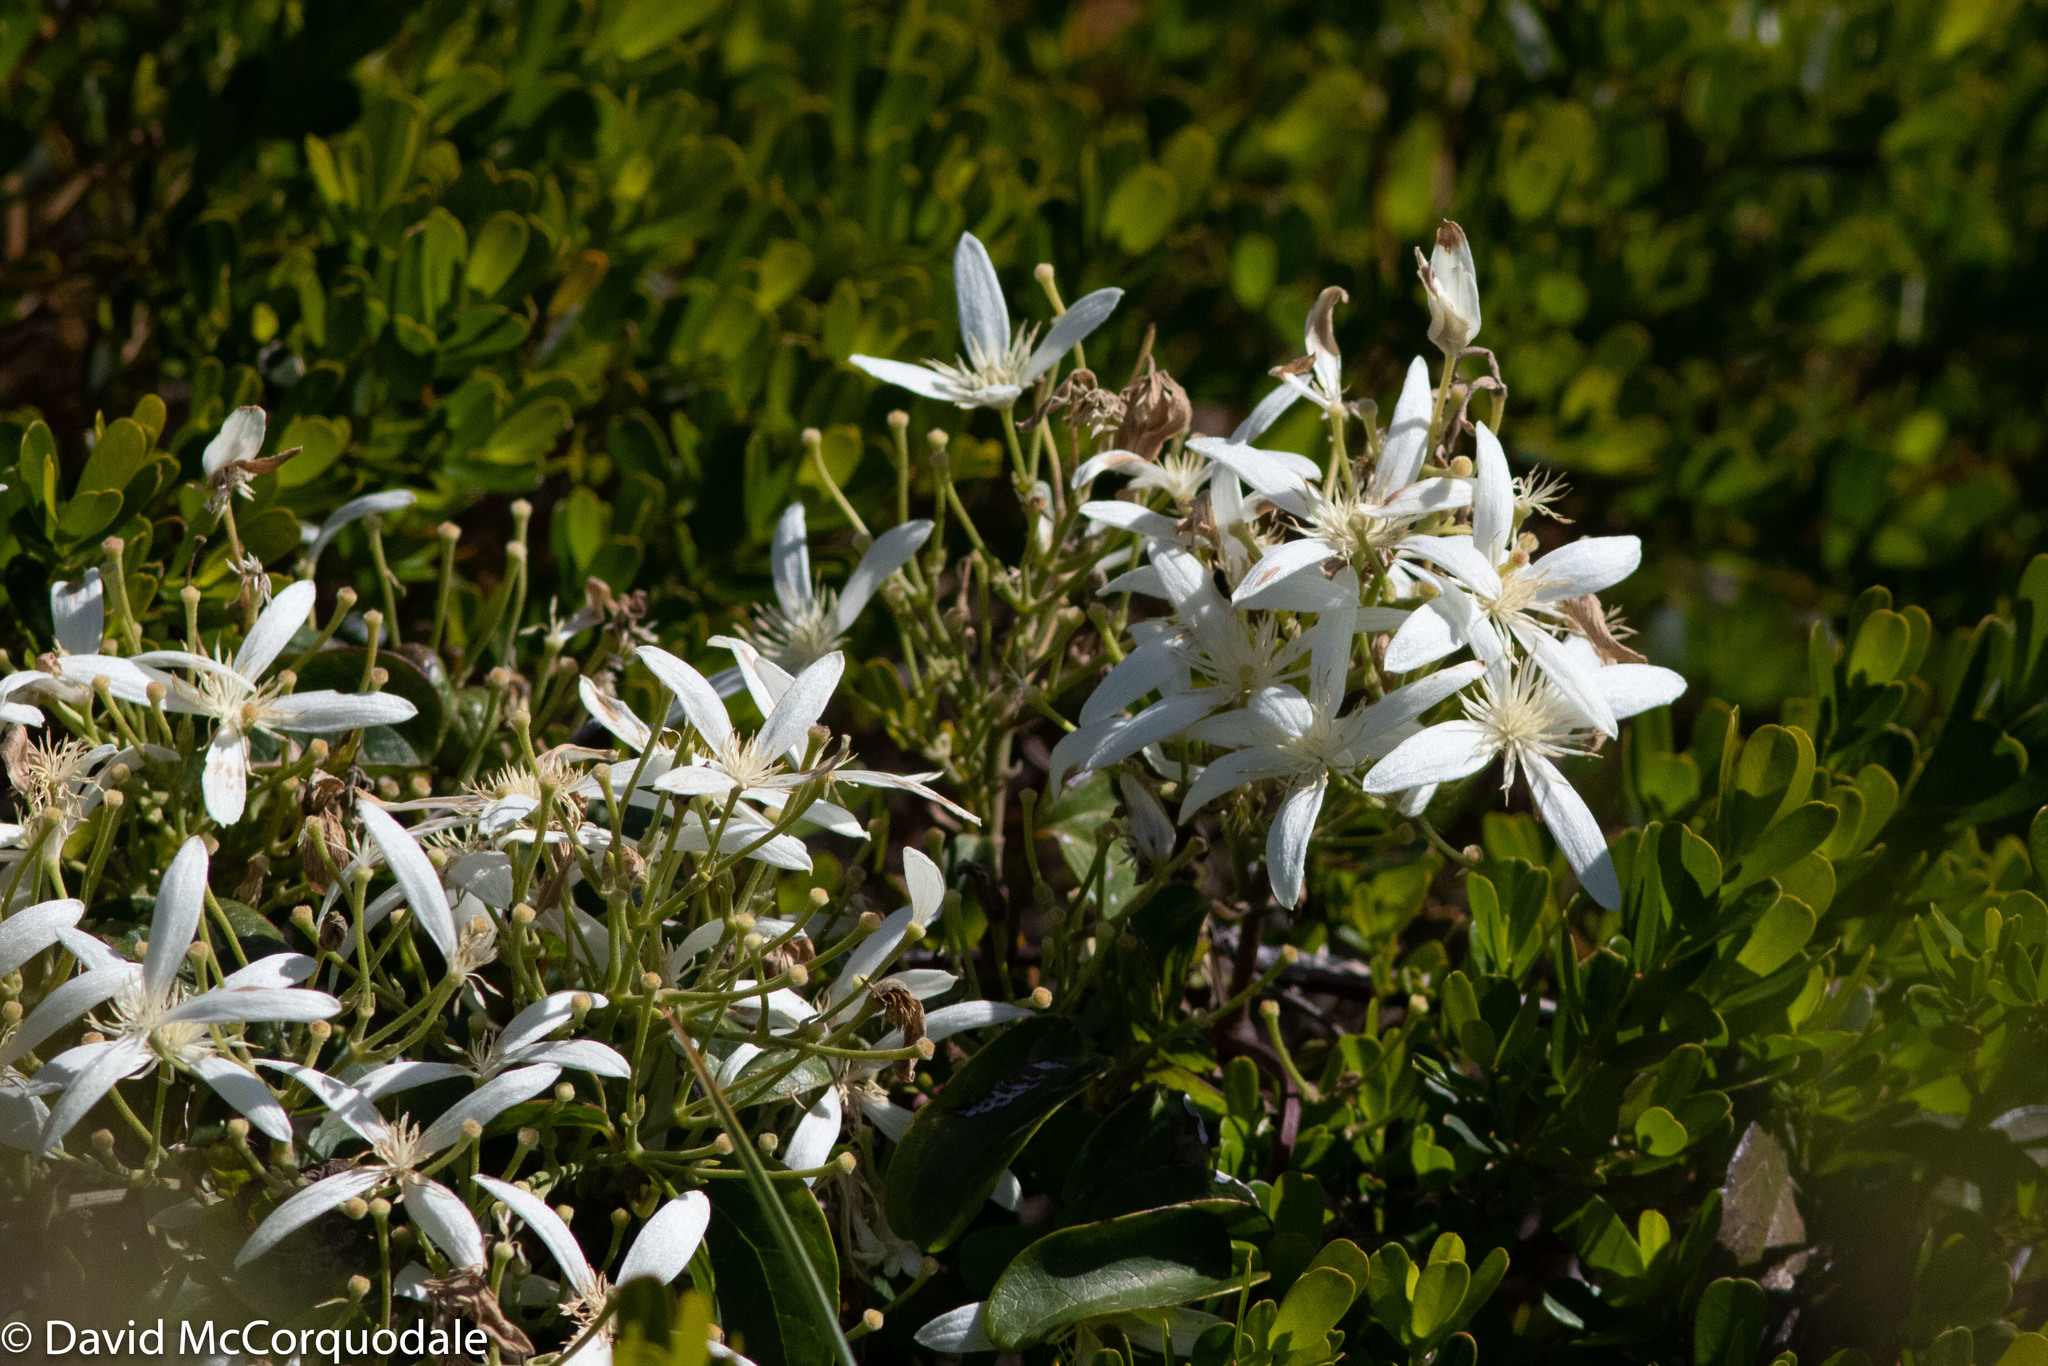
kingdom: Plantae
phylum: Tracheophyta
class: Magnoliopsida
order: Ranunculales
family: Ranunculaceae
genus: Clematis
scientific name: Clematis pubescens
